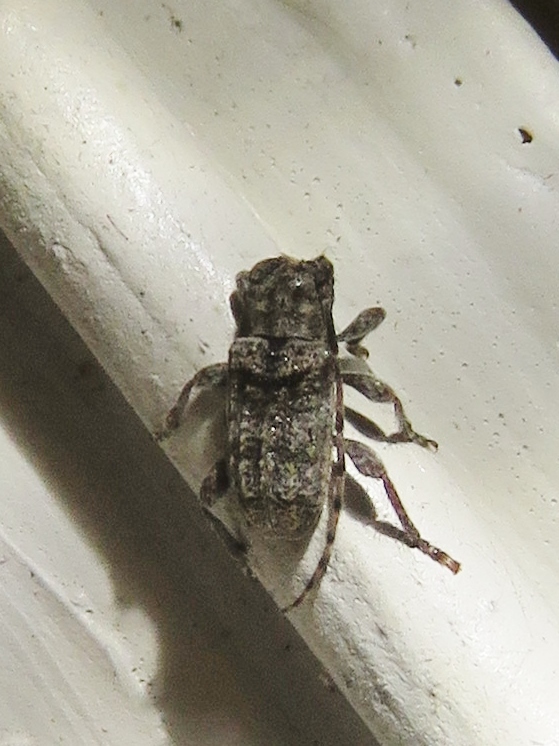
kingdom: Animalia
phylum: Arthropoda
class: Insecta
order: Coleoptera
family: Cerambycidae
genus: Ecyrus
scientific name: Ecyrus dasycerus
